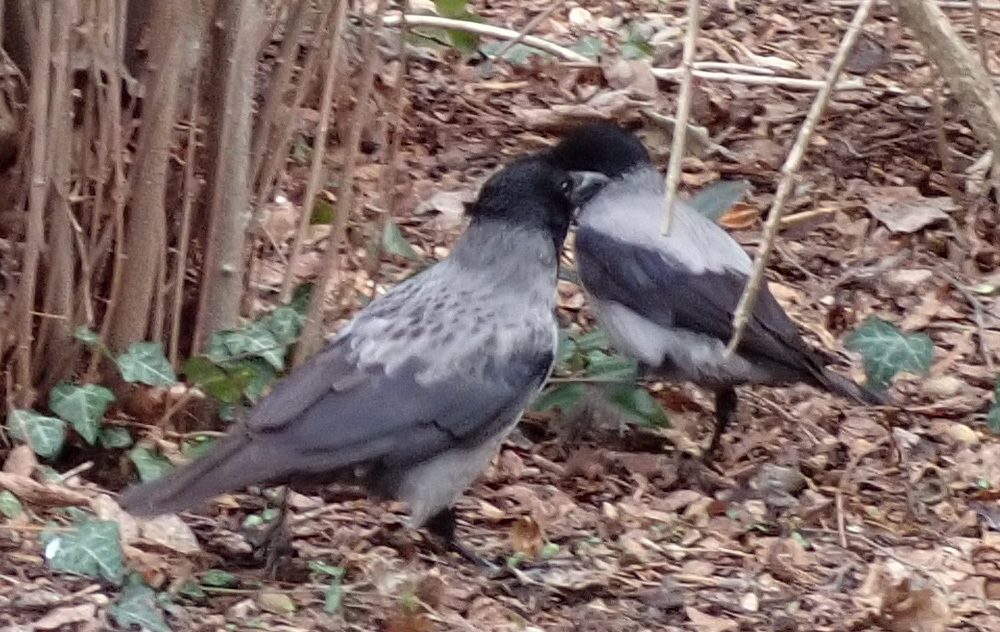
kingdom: Animalia
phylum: Chordata
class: Aves
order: Passeriformes
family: Corvidae
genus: Corvus
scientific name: Corvus cornix
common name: Hooded crow
